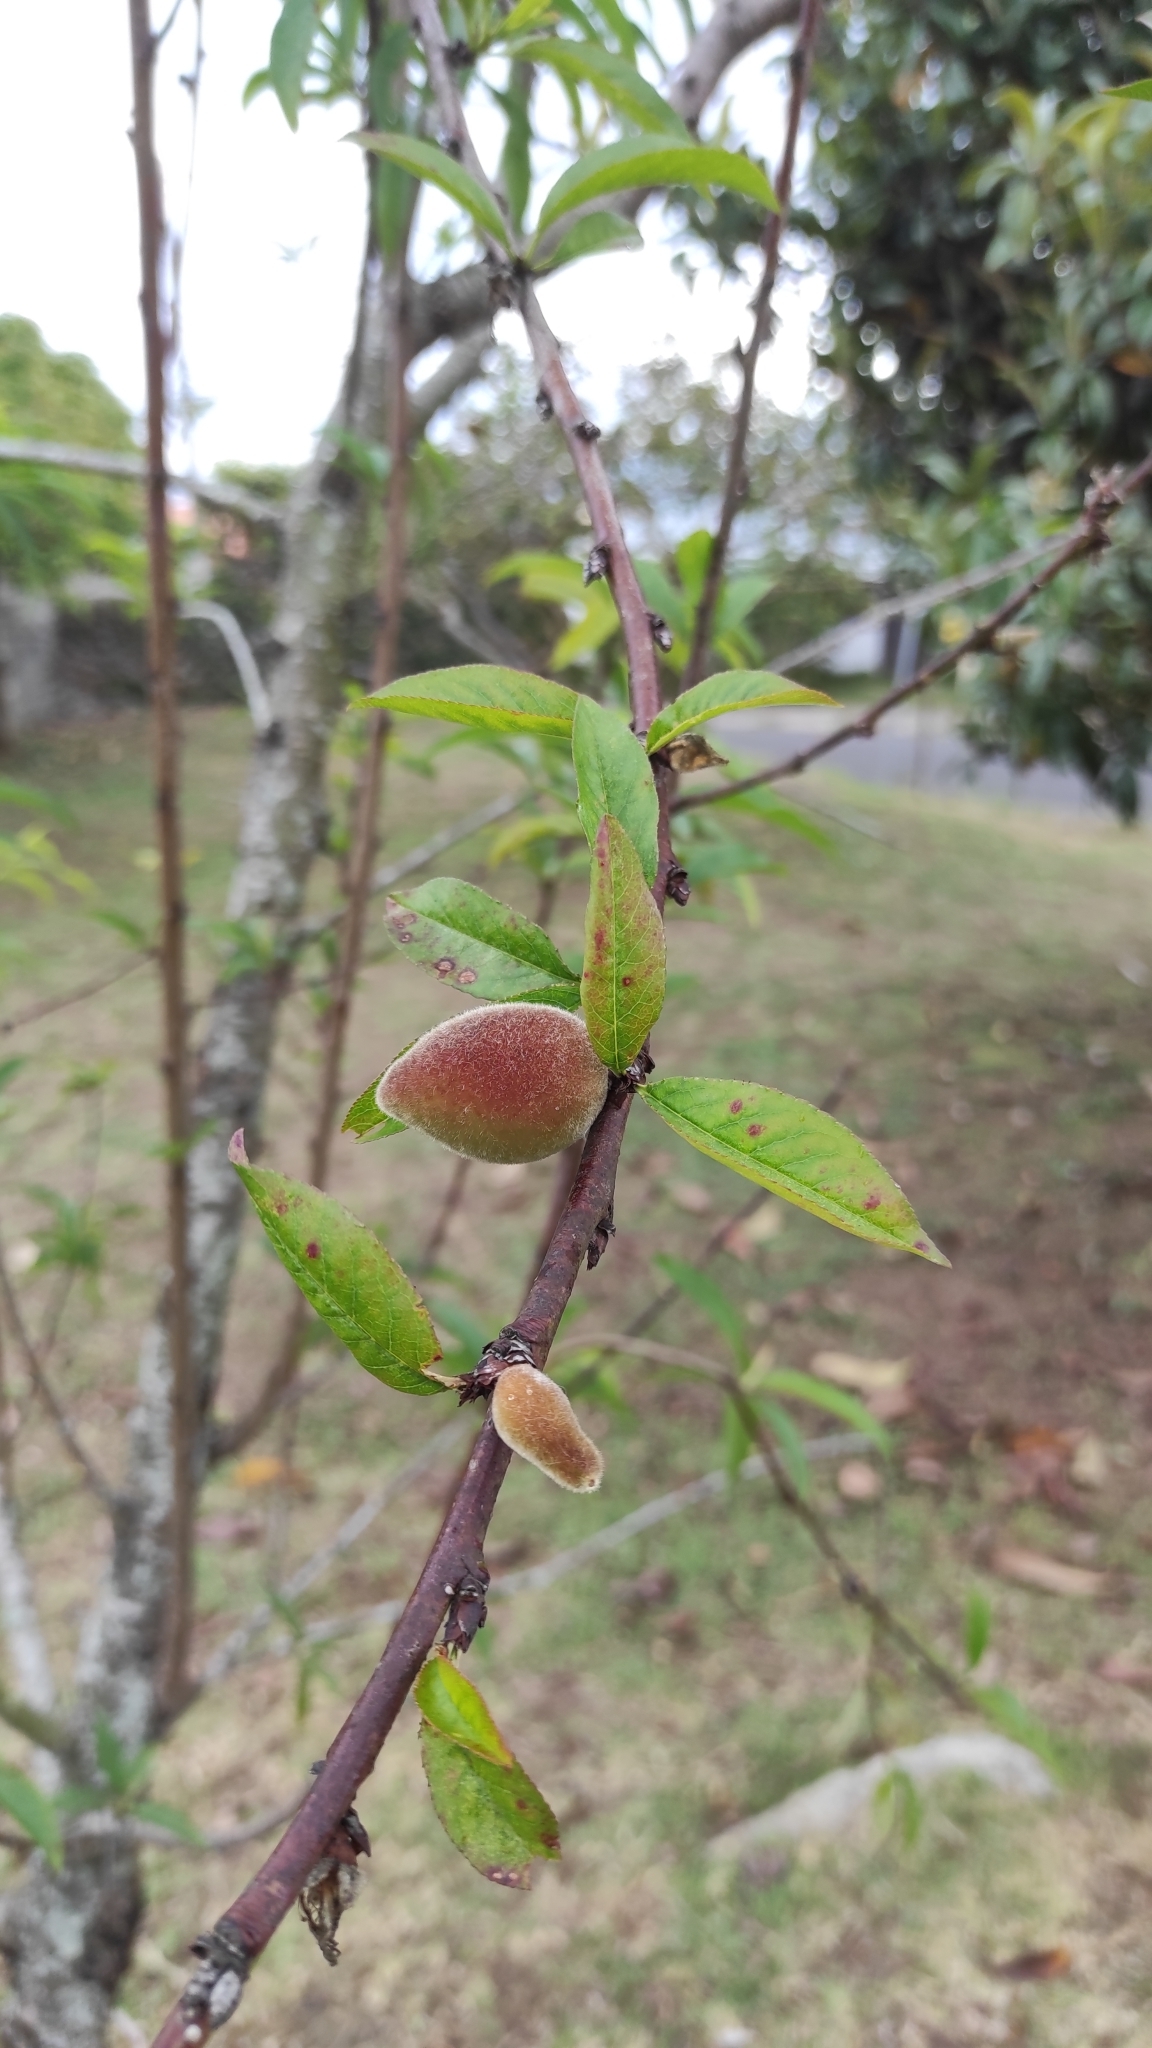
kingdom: Plantae
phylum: Tracheophyta
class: Magnoliopsida
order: Rosales
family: Rosaceae
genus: Prunus
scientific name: Prunus persica
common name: Peach
